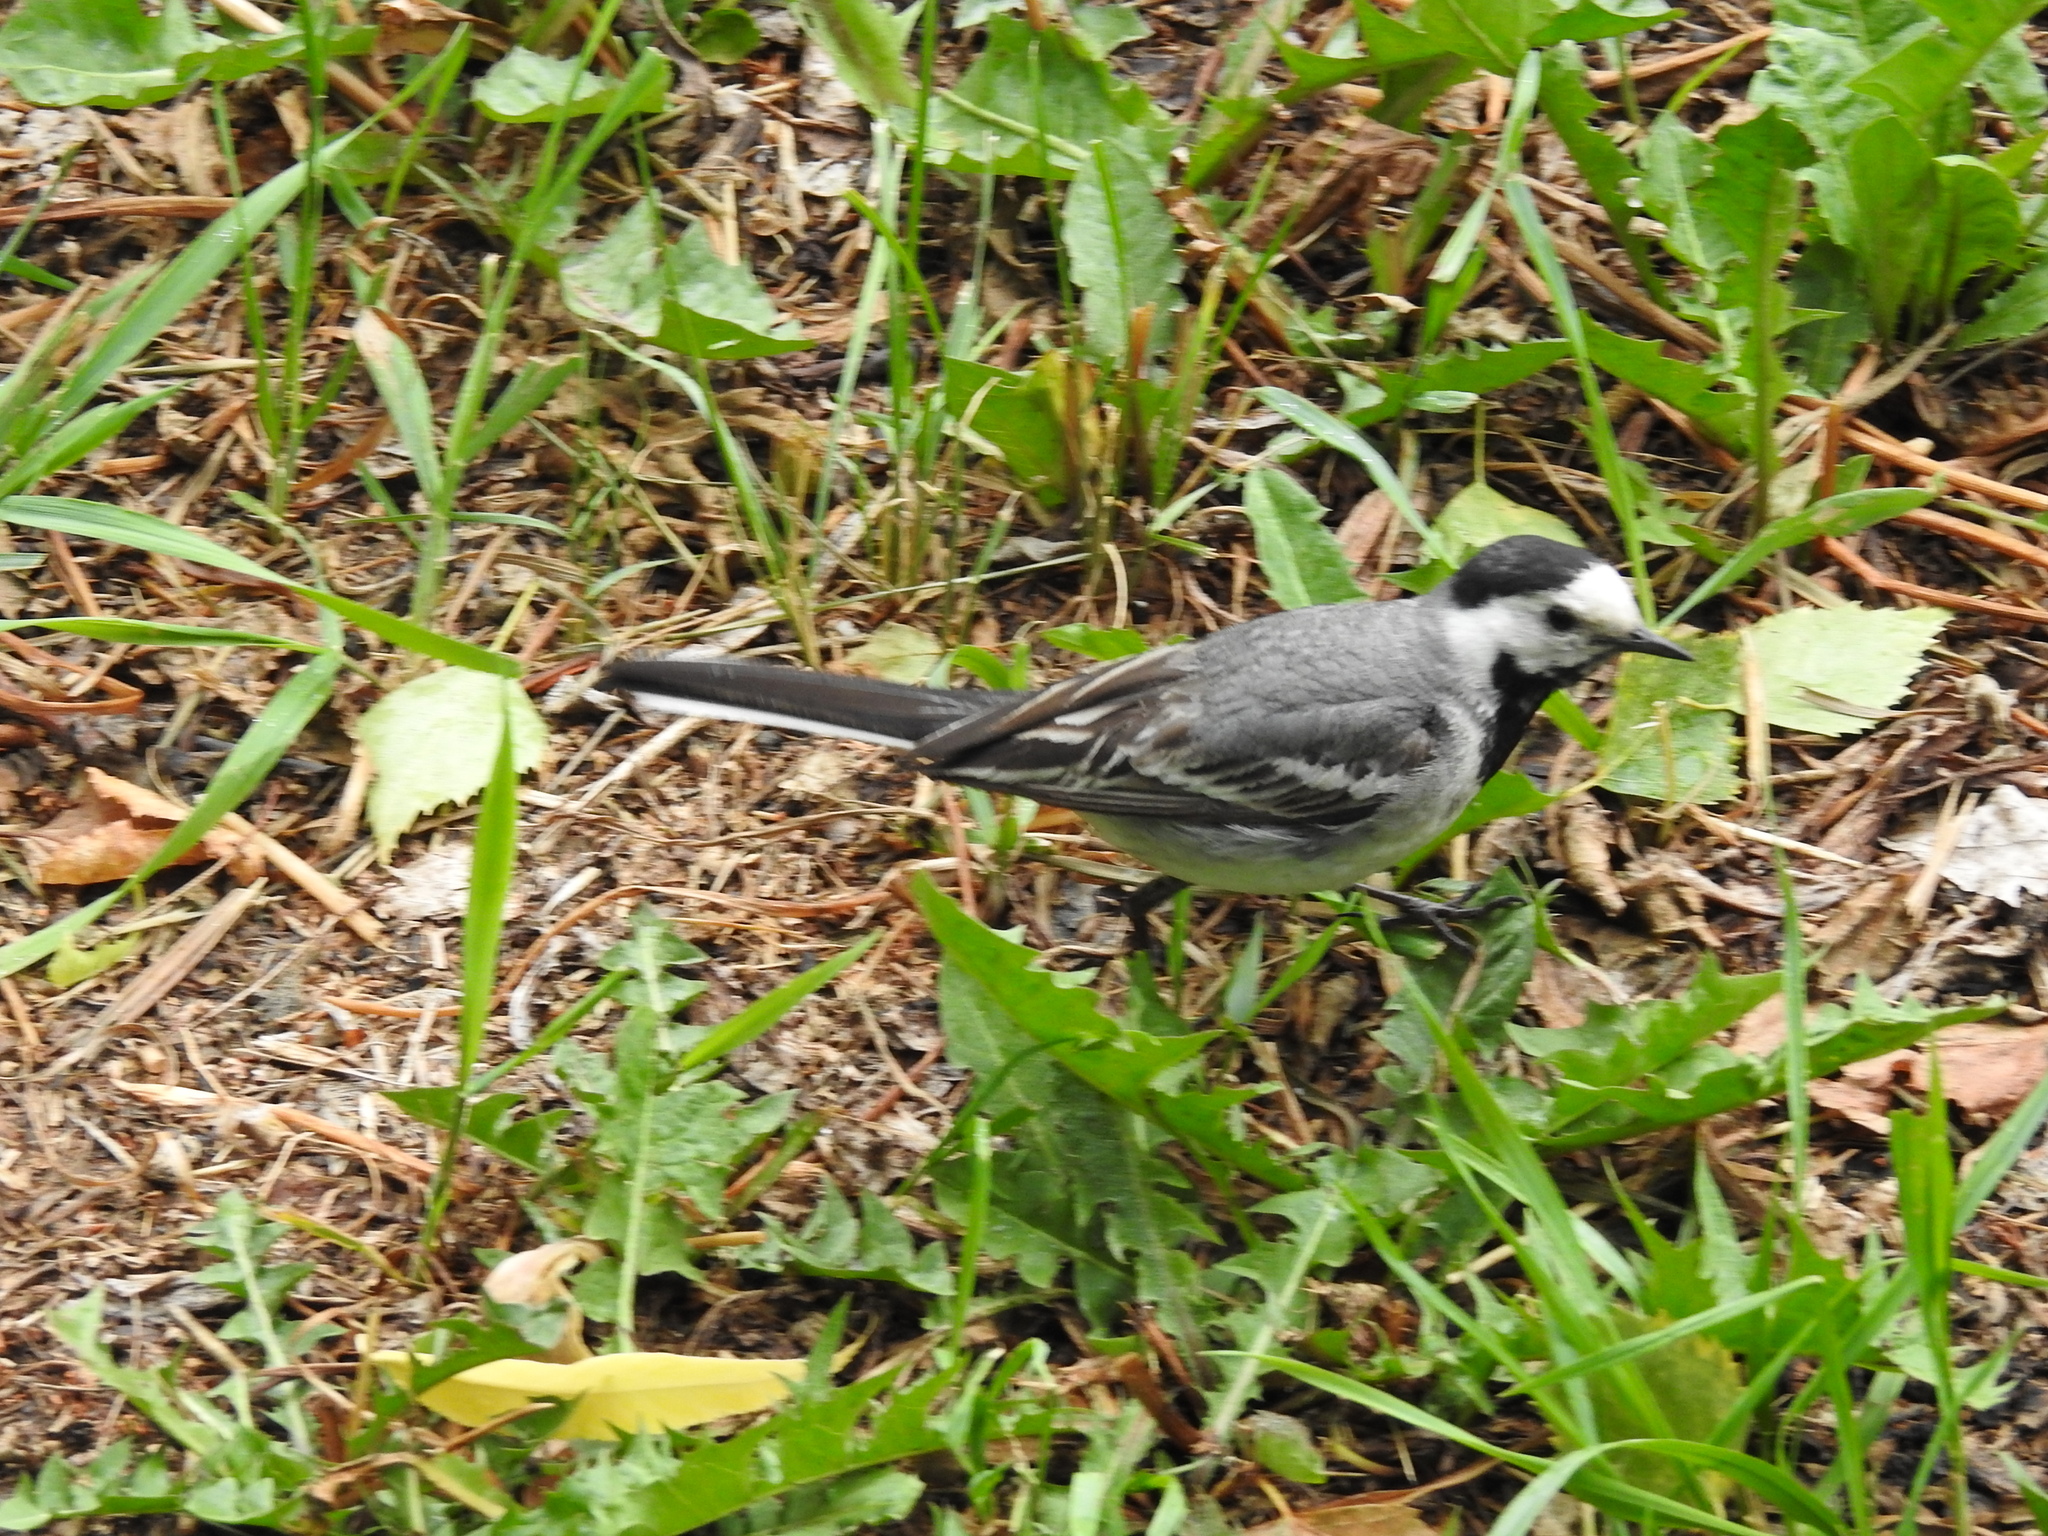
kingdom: Animalia
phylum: Chordata
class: Aves
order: Passeriformes
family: Motacillidae
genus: Motacilla
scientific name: Motacilla alba
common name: White wagtail
